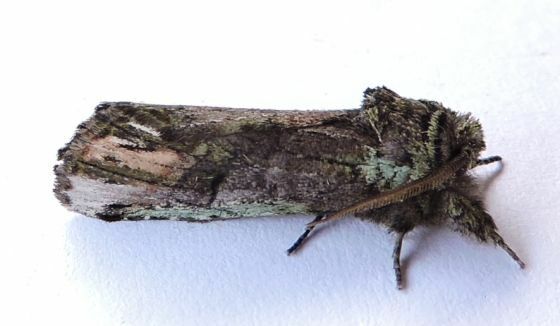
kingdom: Animalia
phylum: Arthropoda
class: Insecta
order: Lepidoptera
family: Notodontidae
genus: Schizura
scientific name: Schizura
